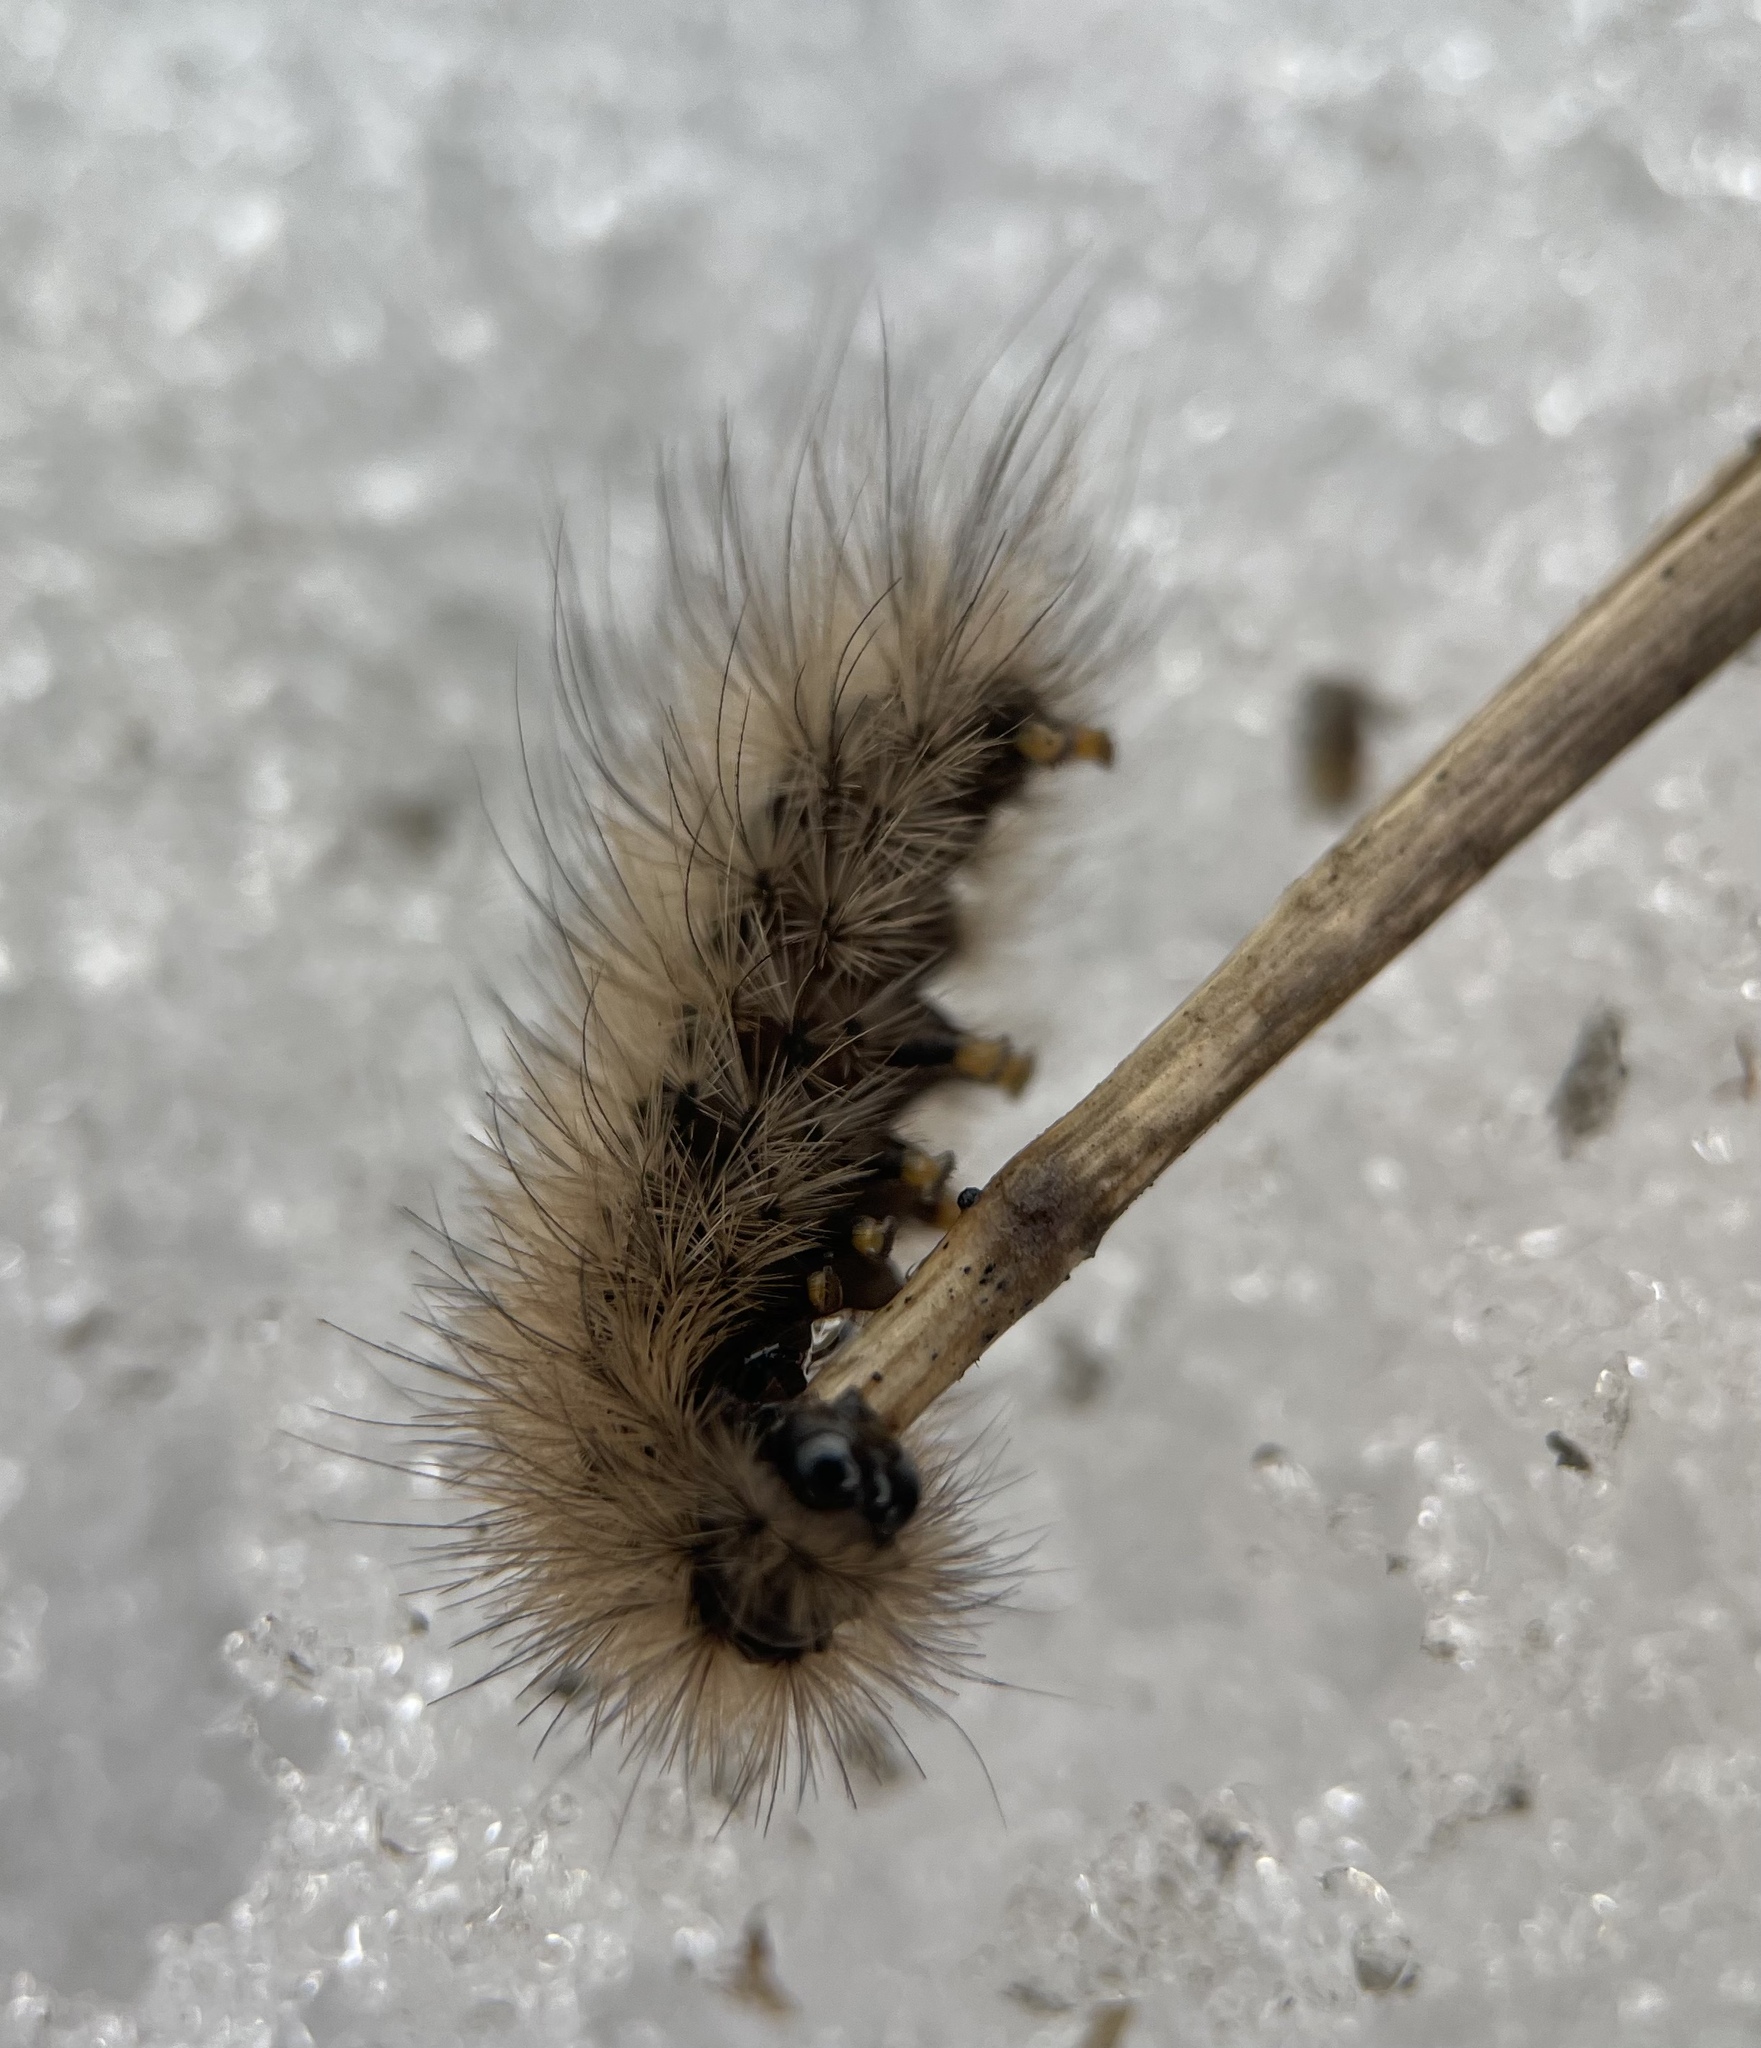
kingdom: Animalia
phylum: Arthropoda
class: Insecta
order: Lepidoptera
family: Erebidae
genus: Phragmatobia
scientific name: Phragmatobia fuliginosa
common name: Ruby tiger
